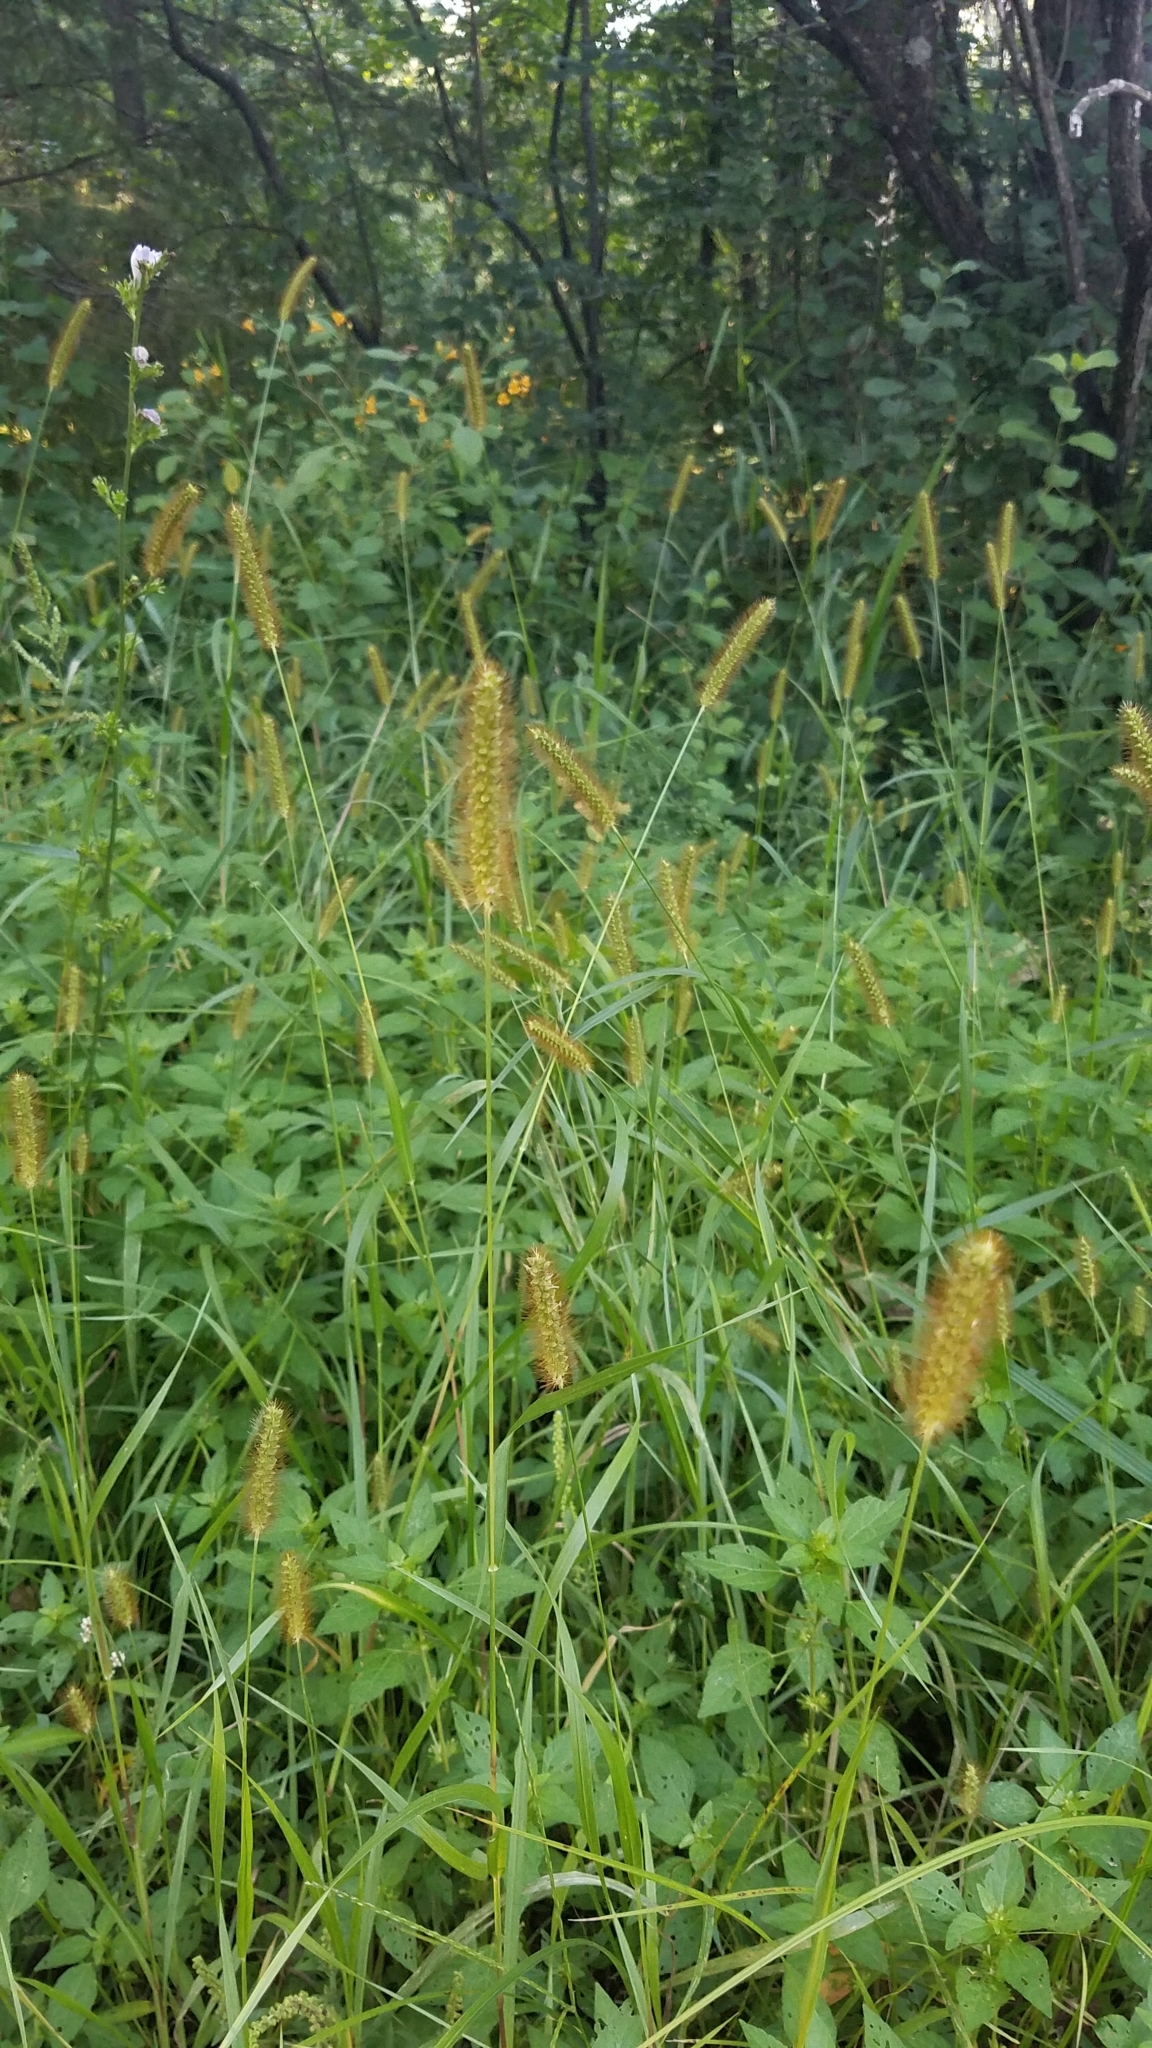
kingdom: Plantae
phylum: Tracheophyta
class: Liliopsida
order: Poales
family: Poaceae
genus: Setaria
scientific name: Setaria pumila
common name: Yellow bristle-grass
